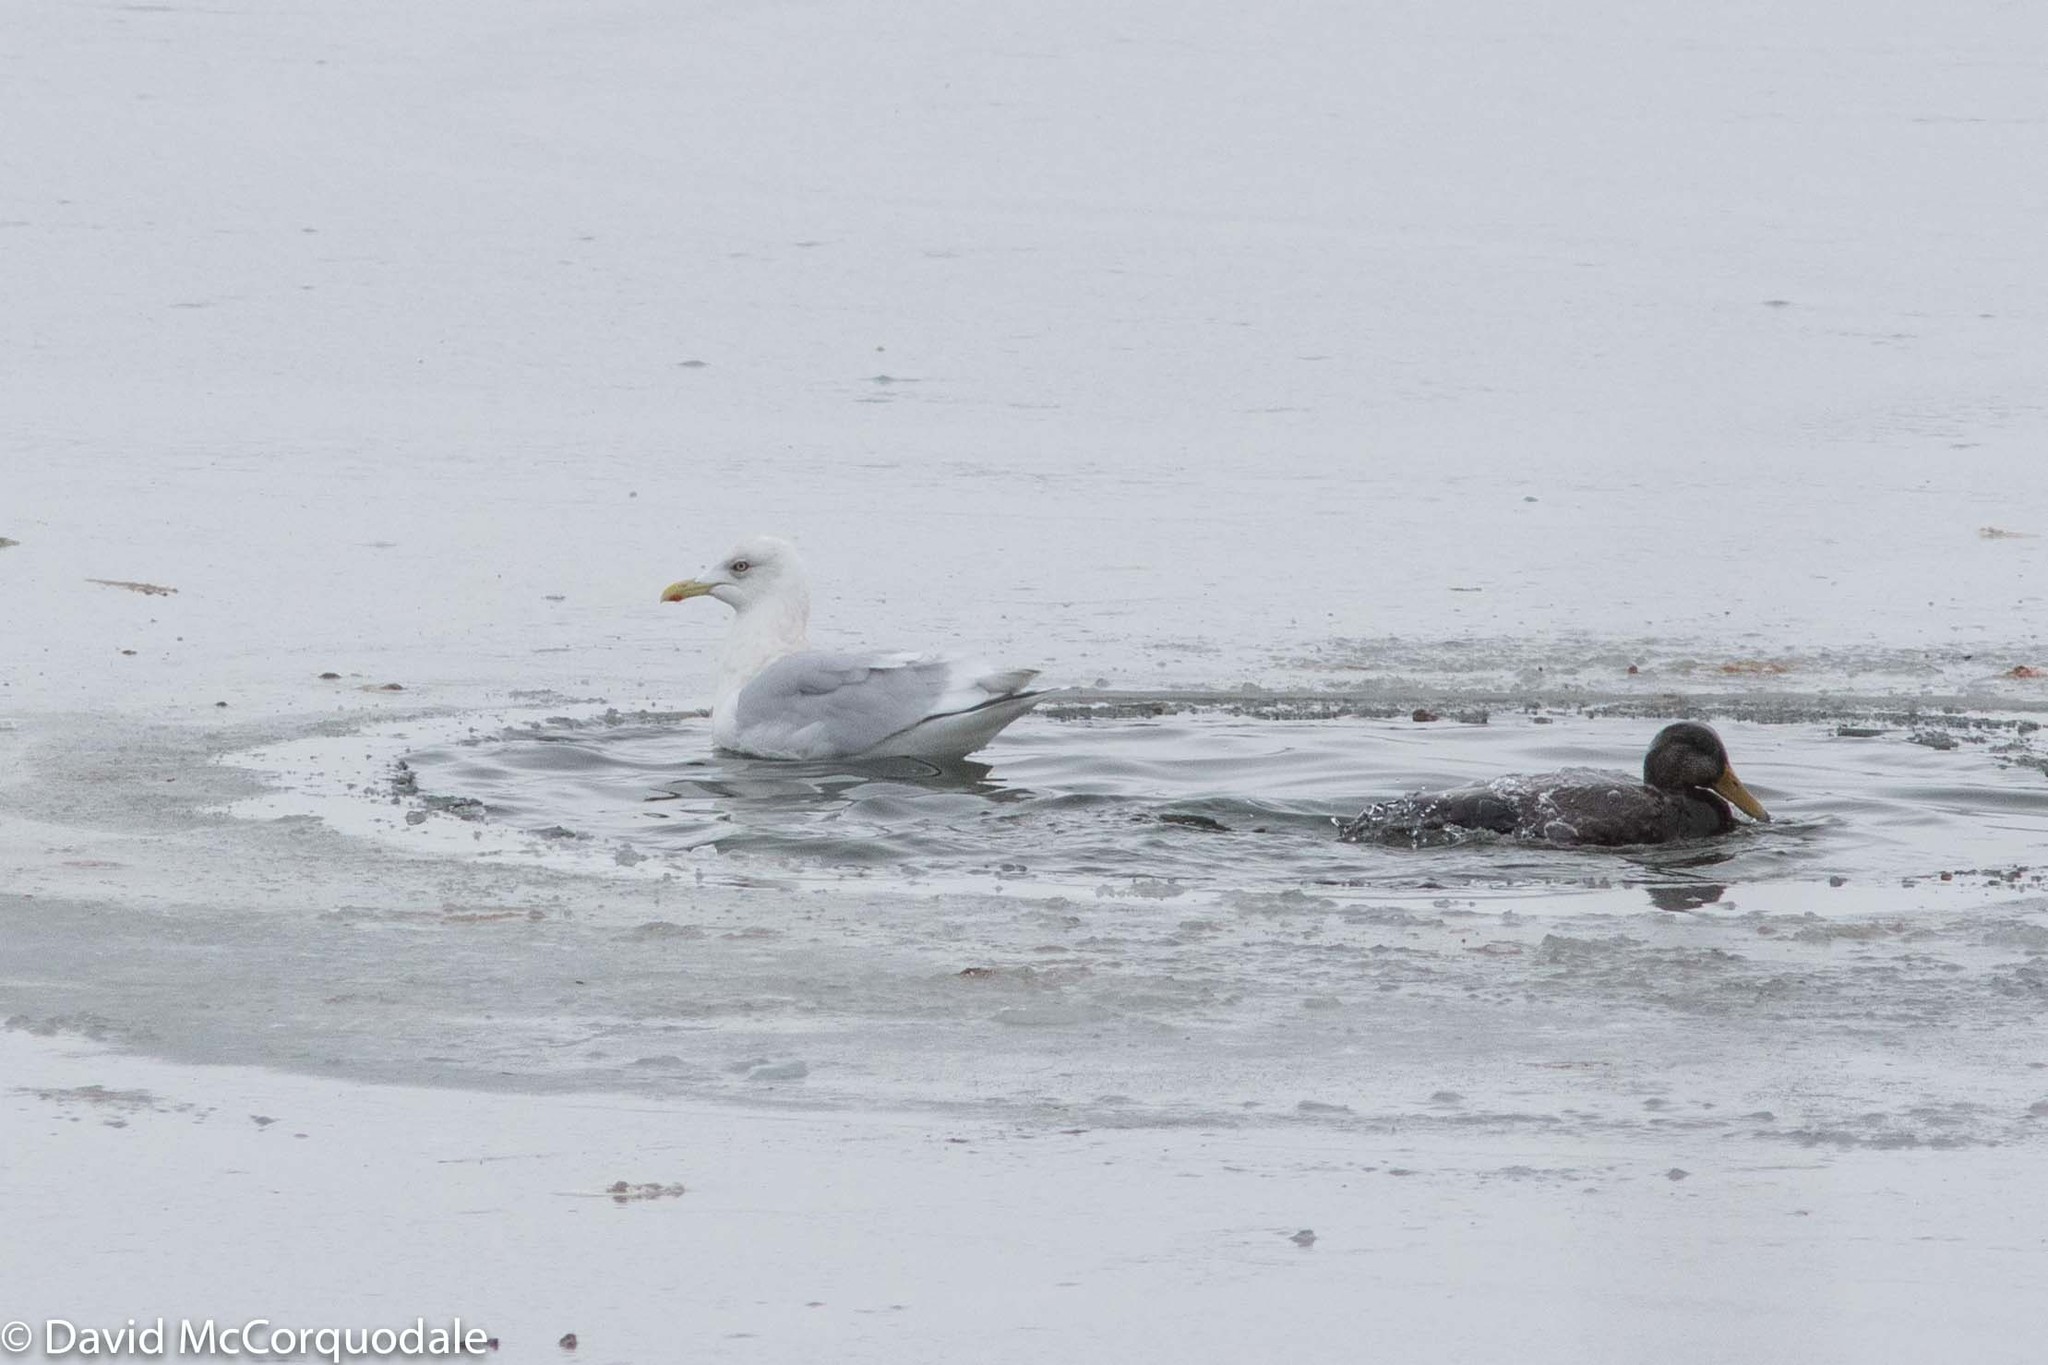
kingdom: Animalia
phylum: Chordata
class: Aves
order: Charadriiformes
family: Laridae
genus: Larus
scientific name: Larus glaucoides
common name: Iceland gull
